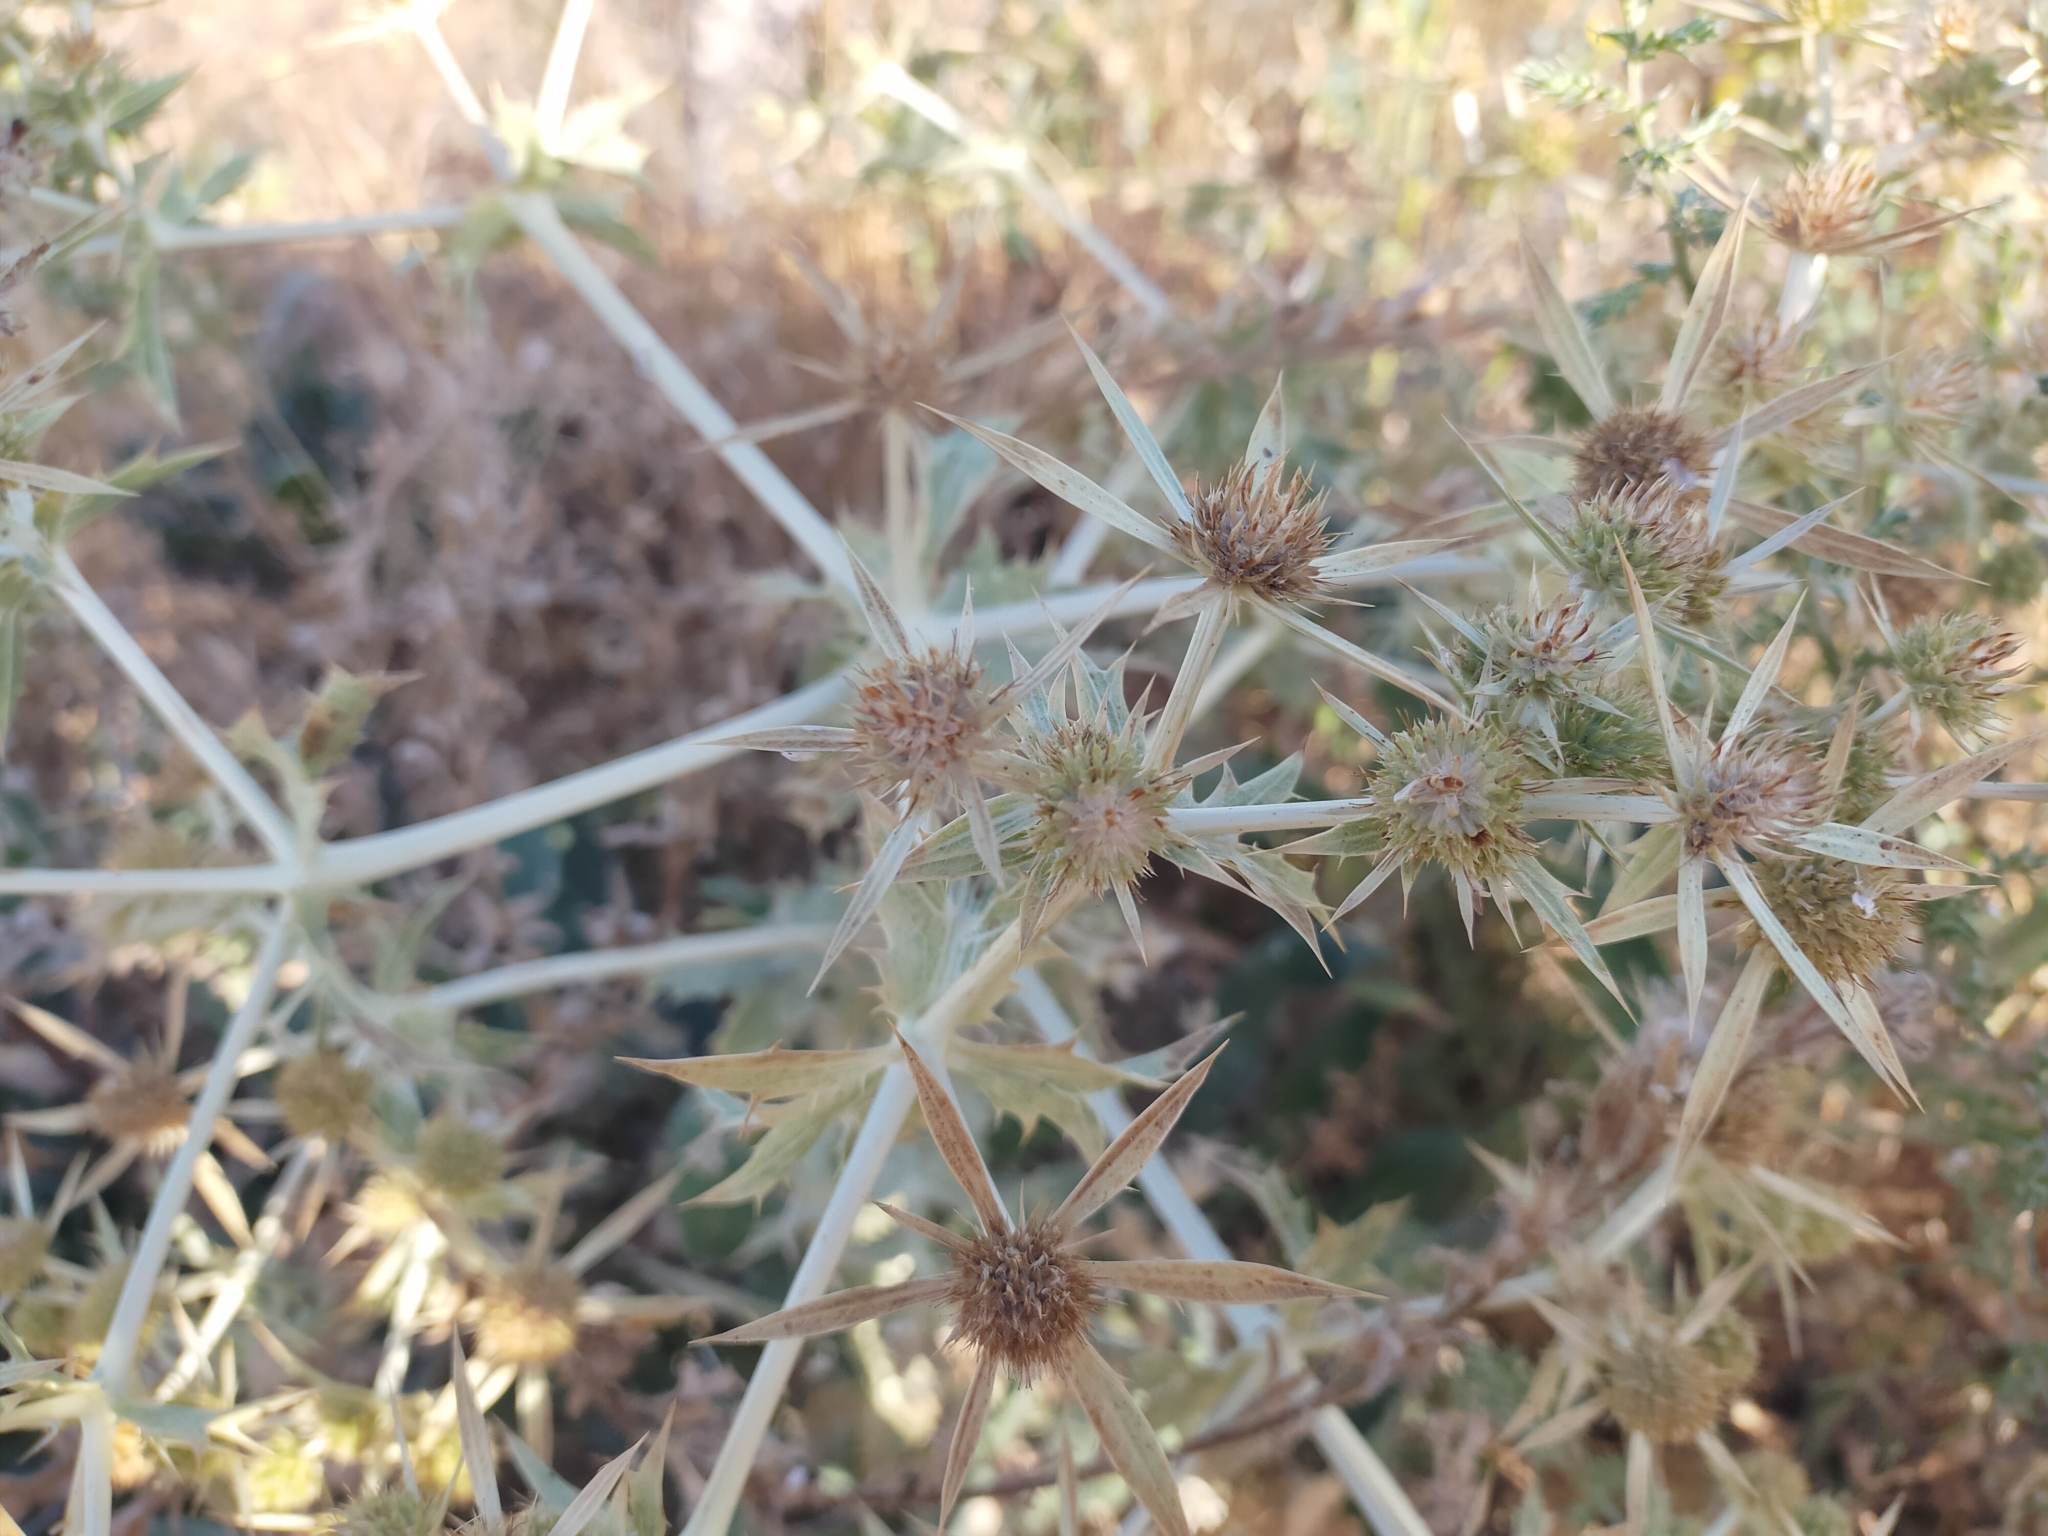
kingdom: Plantae
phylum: Tracheophyta
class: Magnoliopsida
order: Apiales
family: Apiaceae
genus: Eryngium
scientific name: Eryngium campestre
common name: Field eryngo
